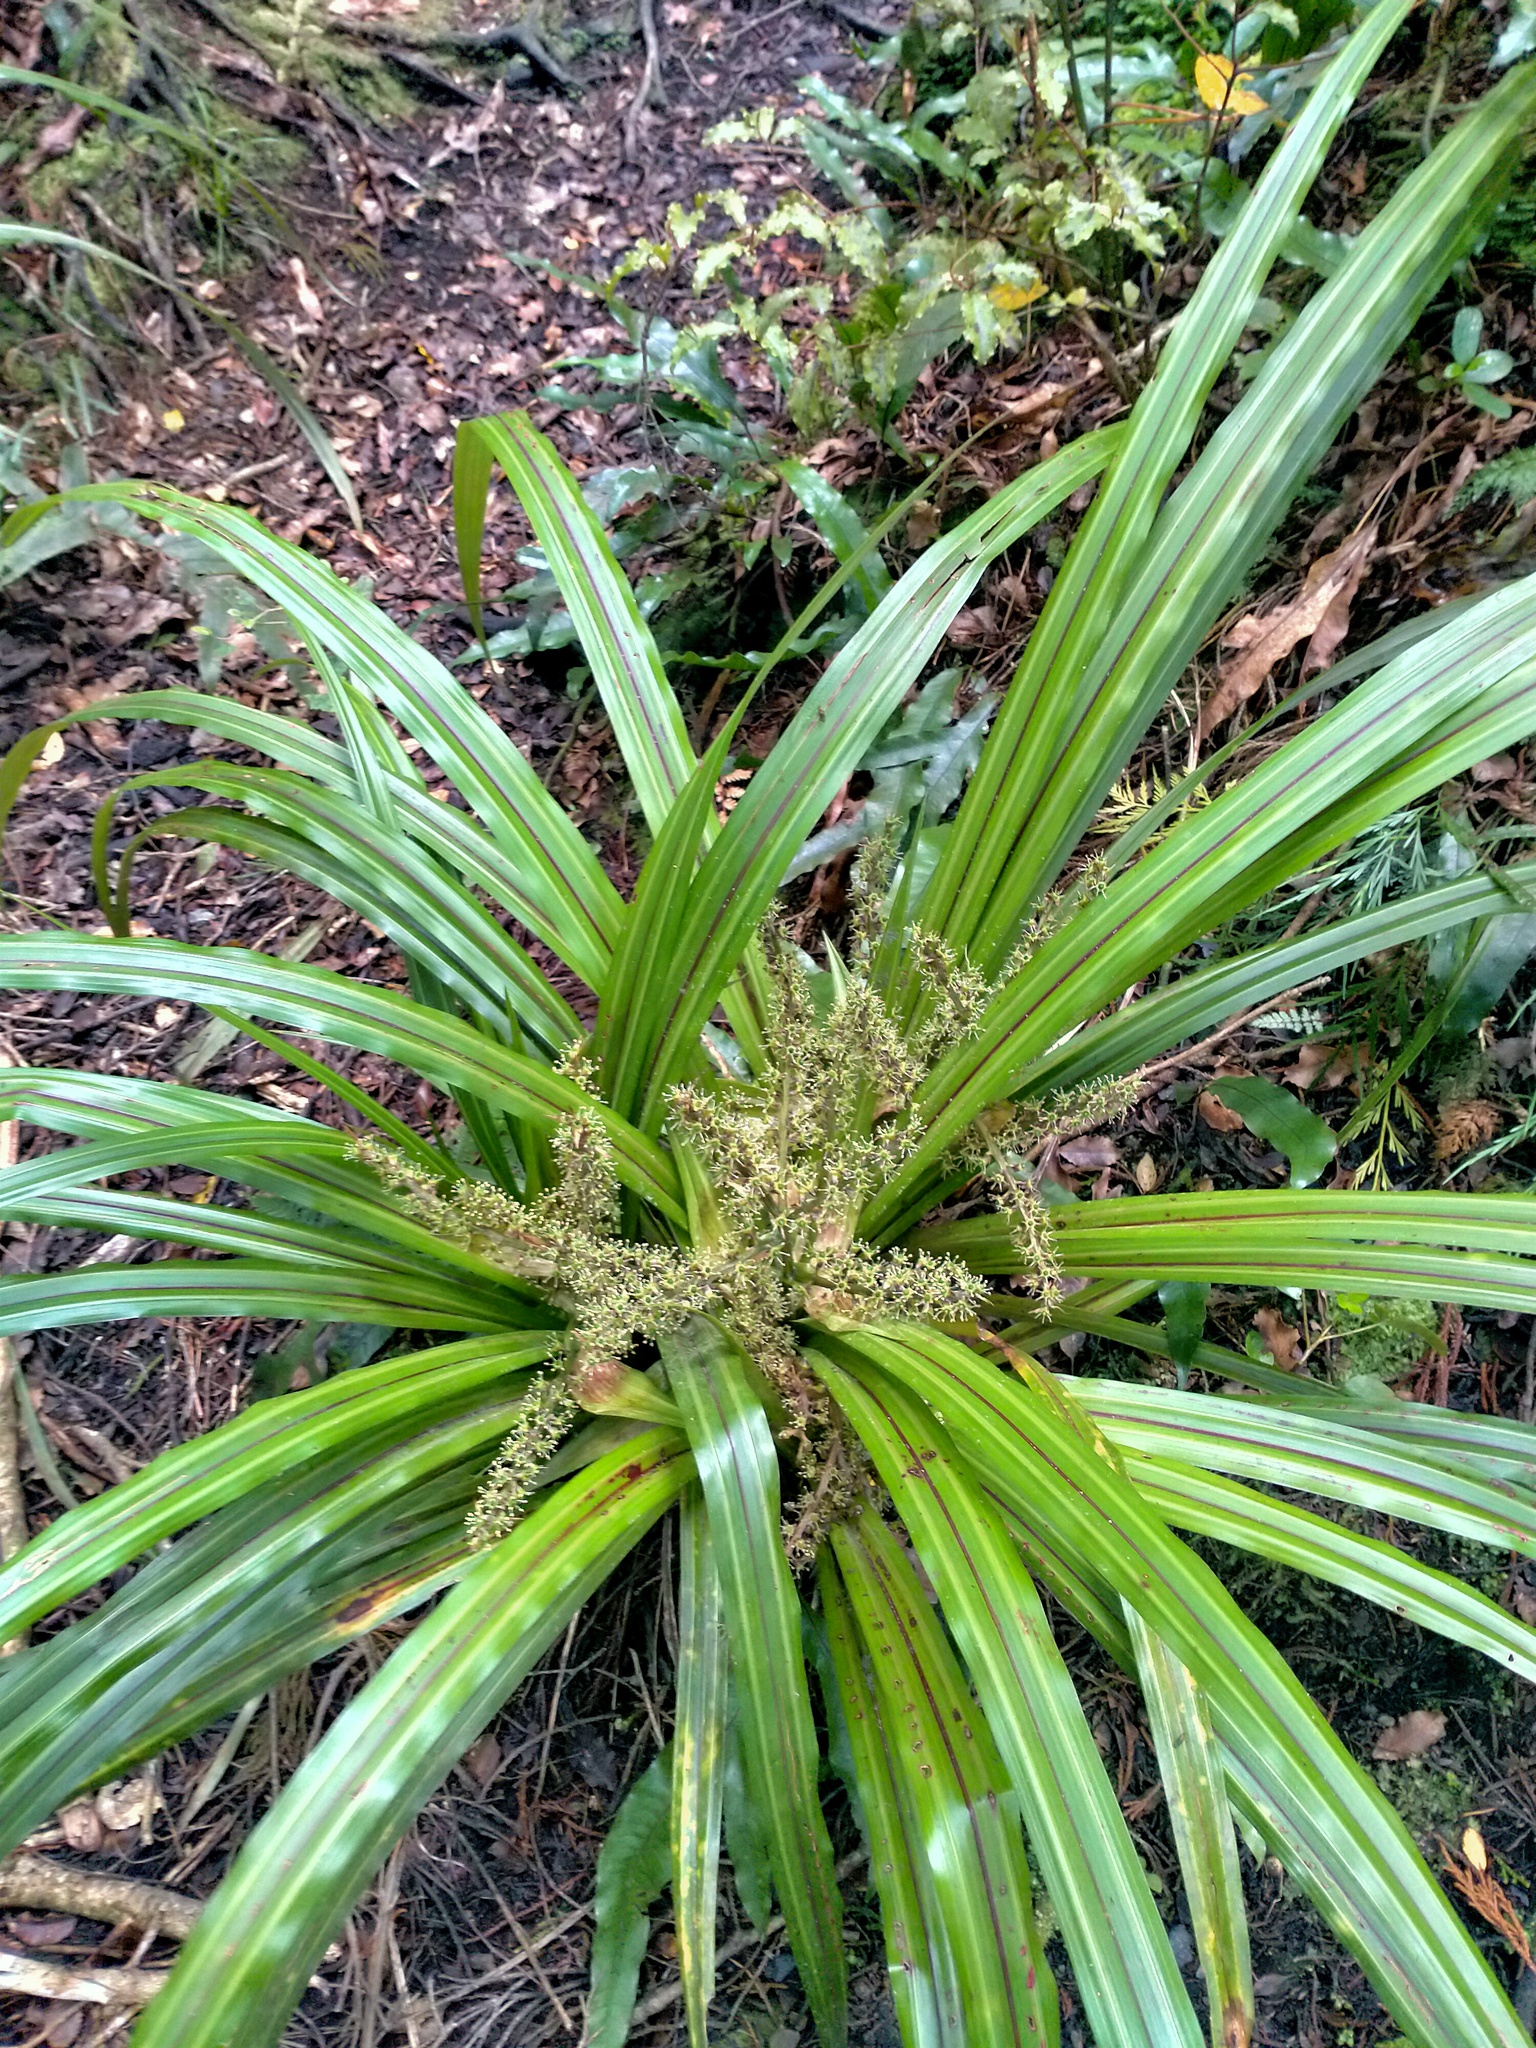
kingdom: Plantae
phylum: Tracheophyta
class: Liliopsida
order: Asparagales
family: Asteliaceae
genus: Astelia
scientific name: Astelia fragrans
